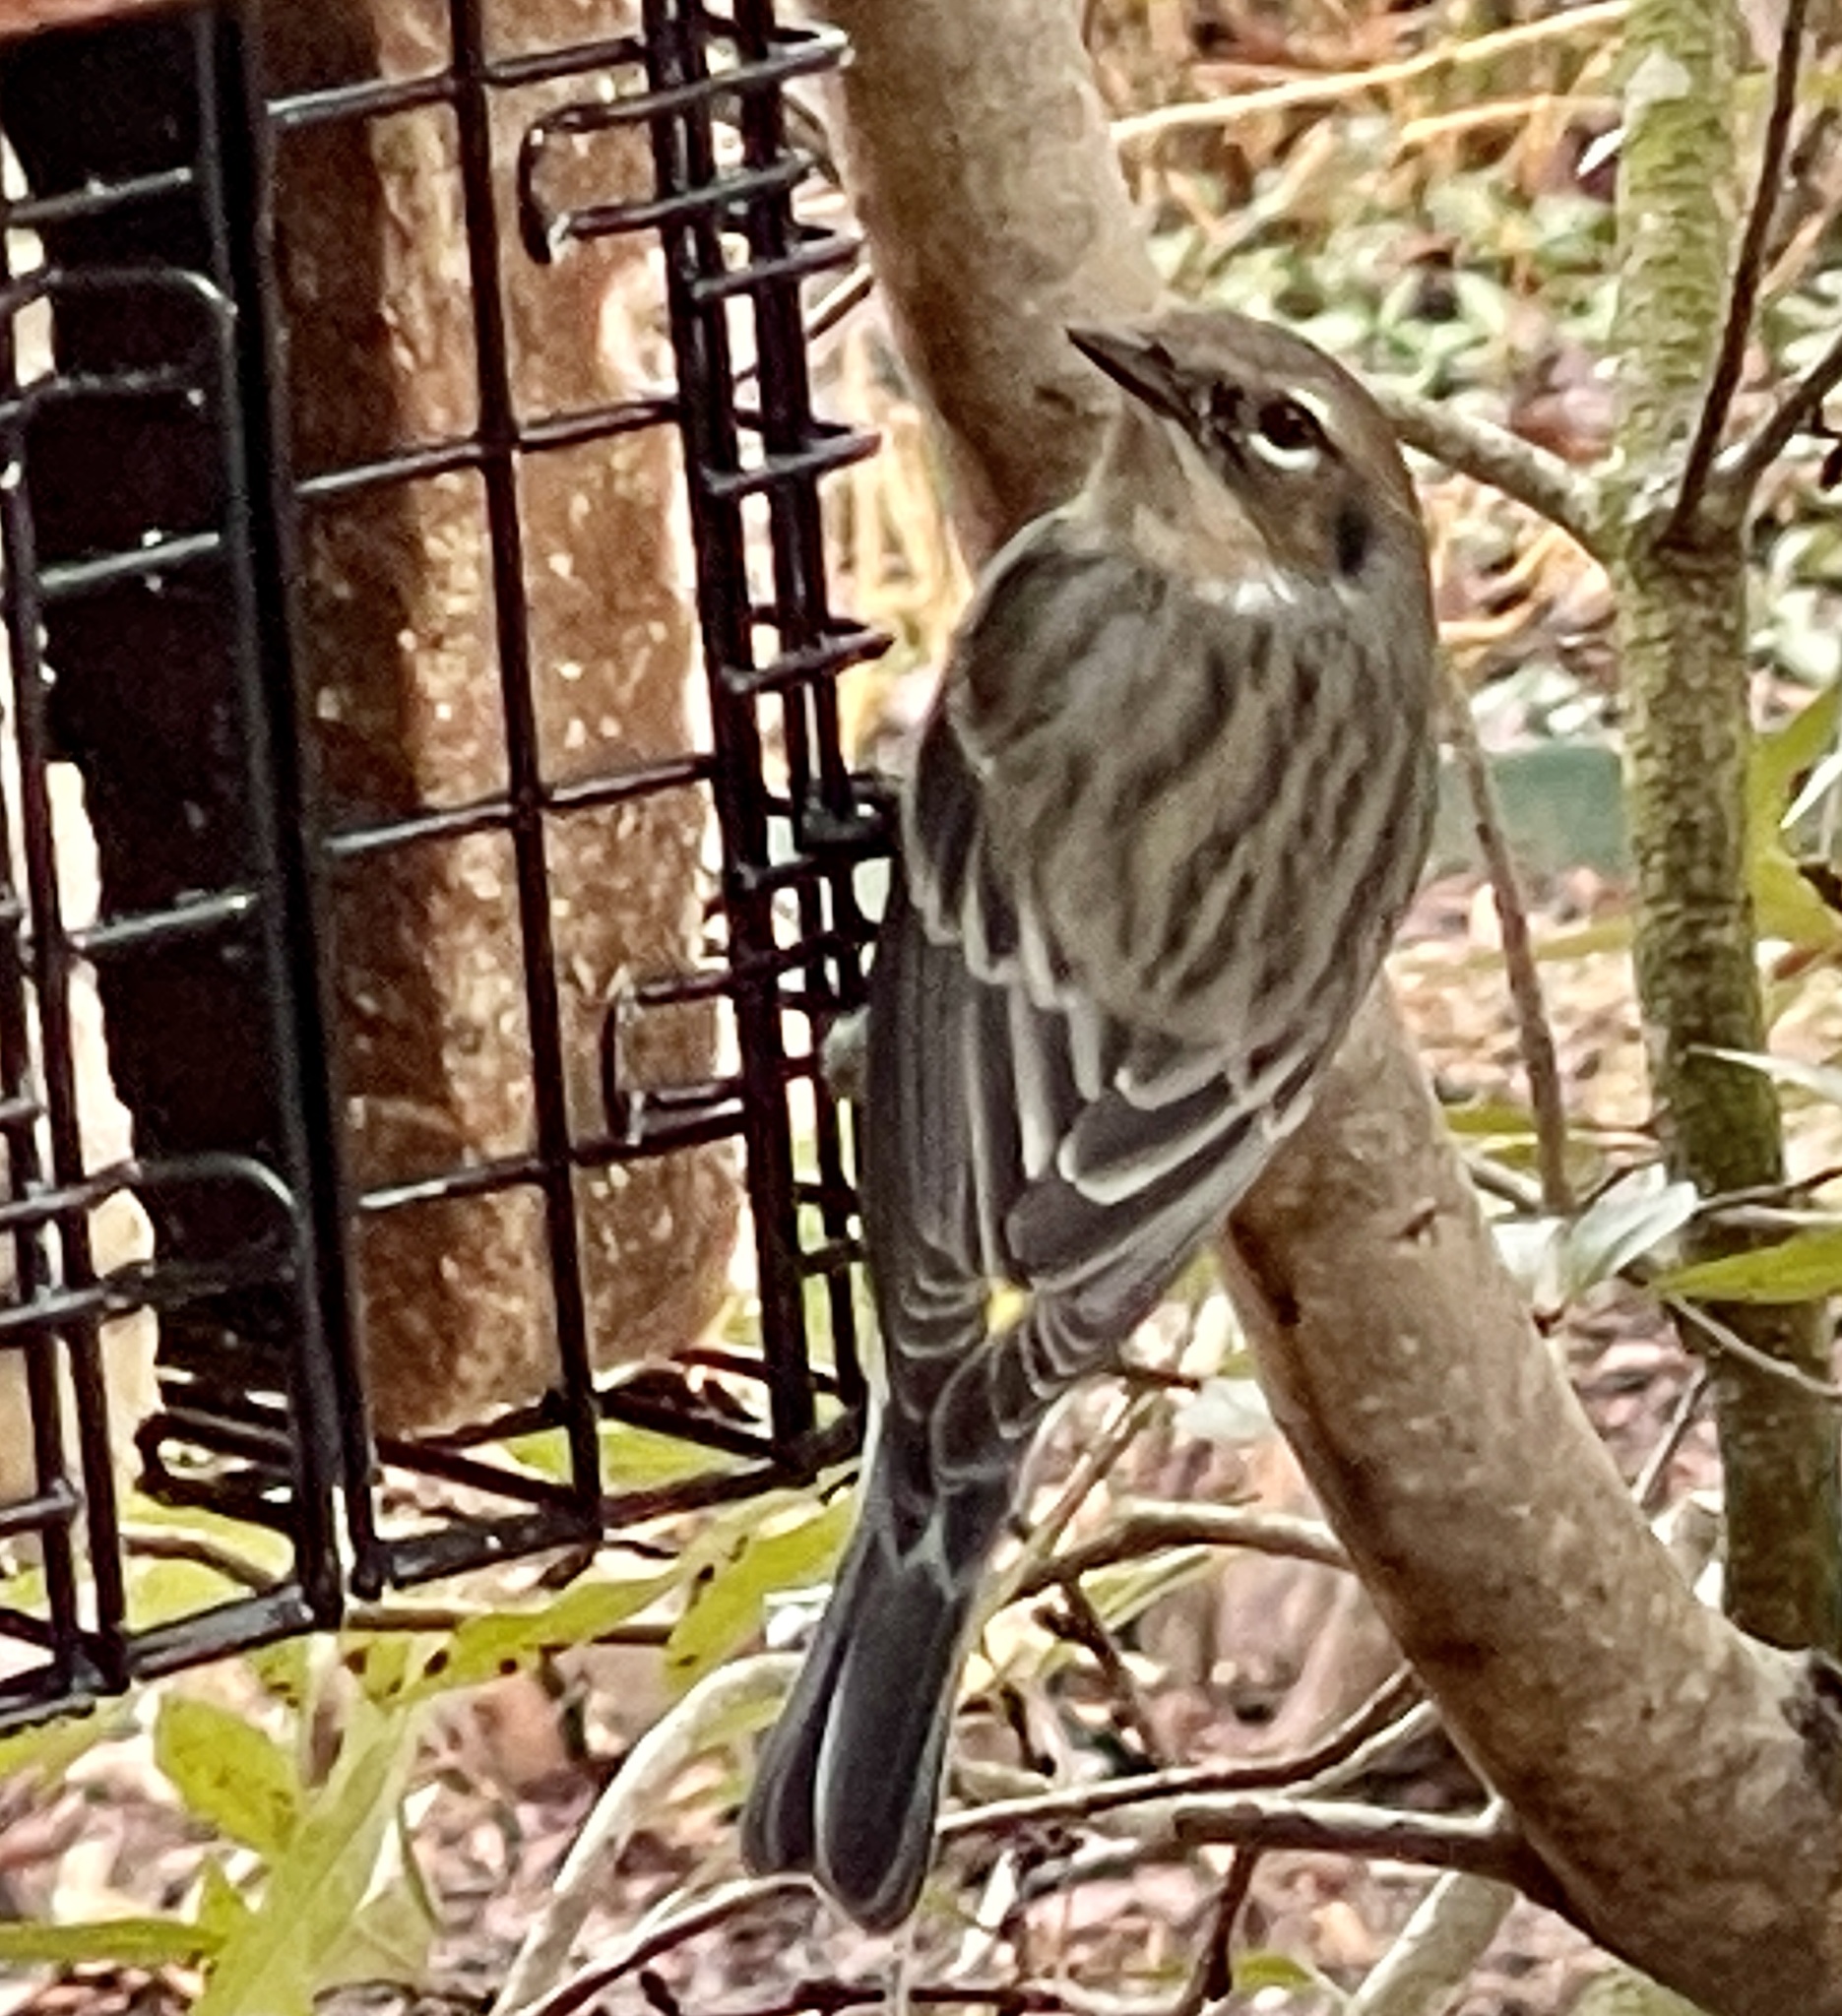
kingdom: Animalia
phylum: Chordata
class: Aves
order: Passeriformes
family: Parulidae
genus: Setophaga
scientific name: Setophaga coronata
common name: Myrtle warbler
